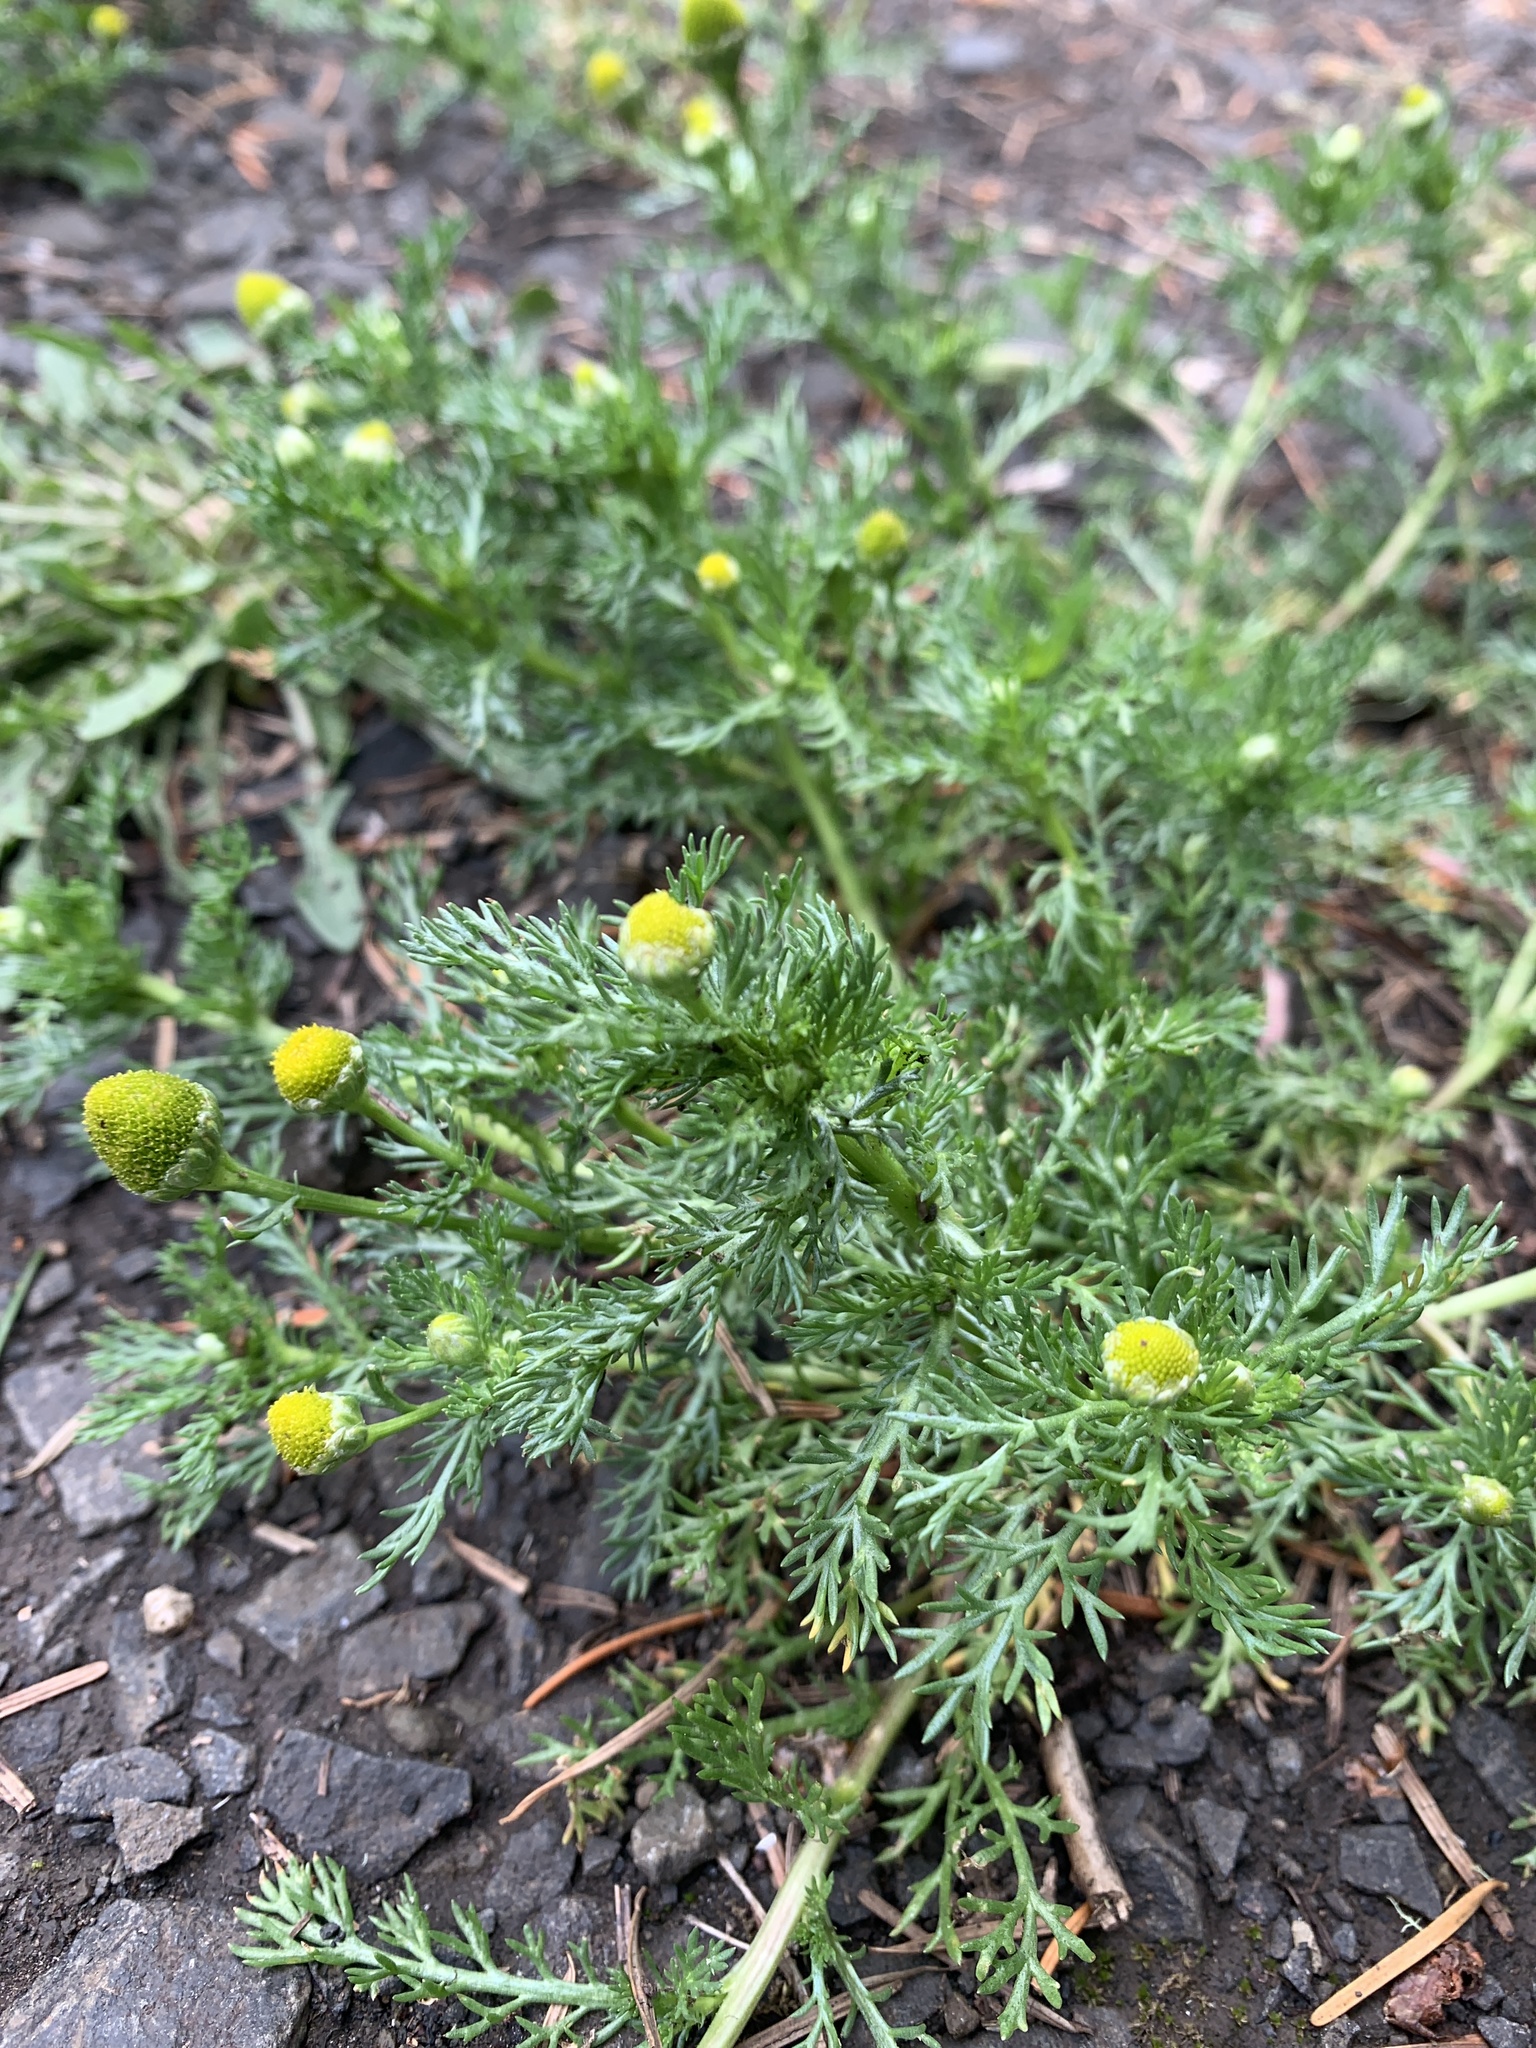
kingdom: Plantae
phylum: Tracheophyta
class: Magnoliopsida
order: Asterales
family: Asteraceae
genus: Matricaria
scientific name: Matricaria discoidea
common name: Disc mayweed
